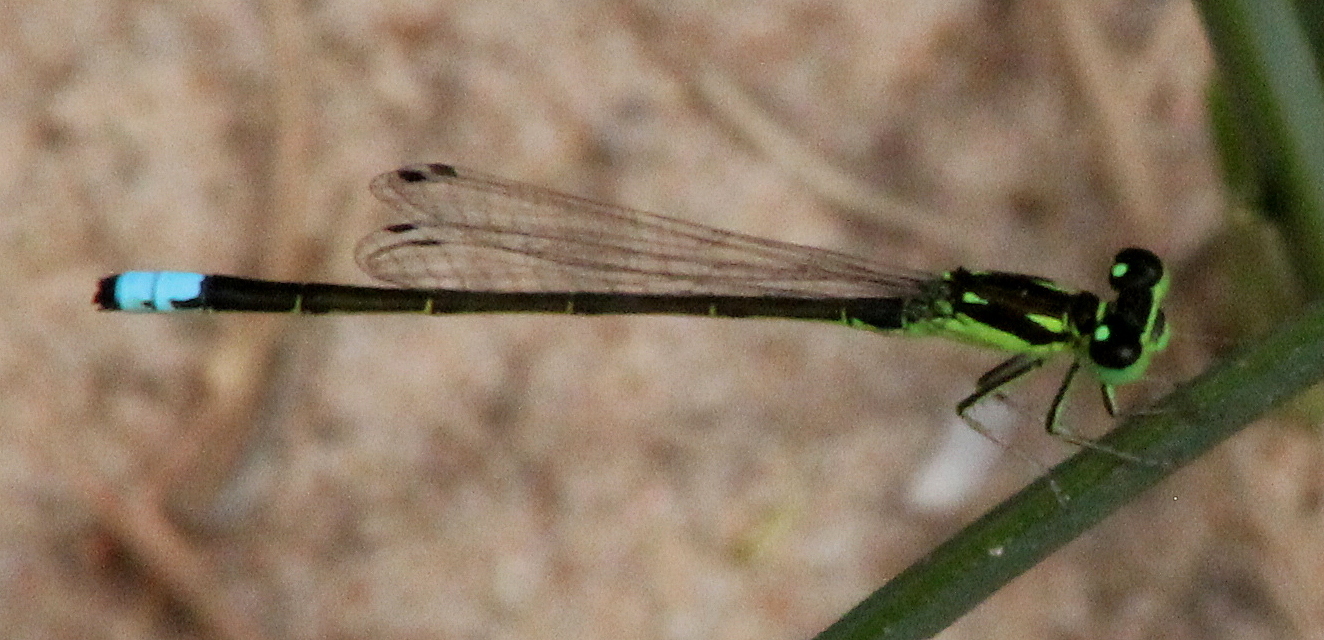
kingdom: Animalia
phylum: Arthropoda
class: Insecta
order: Odonata
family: Coenagrionidae
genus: Ischnura
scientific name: Ischnura verticalis
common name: Eastern forktail
